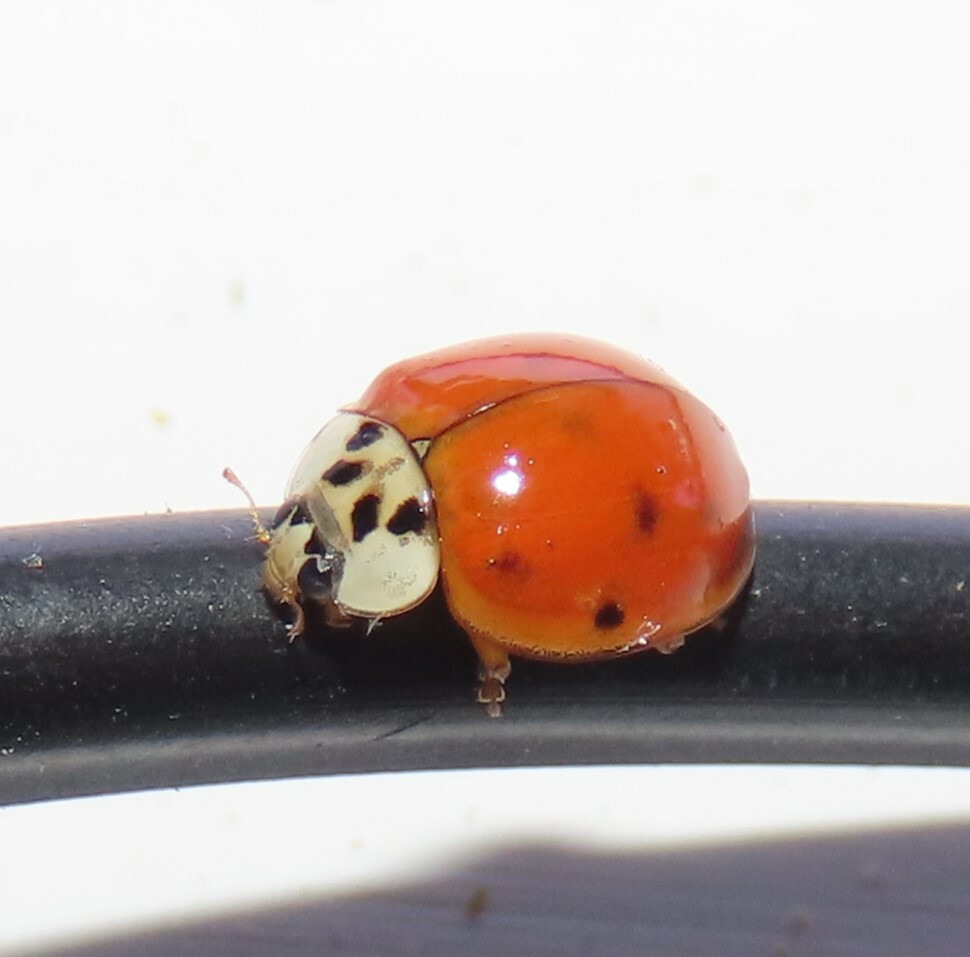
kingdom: Animalia
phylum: Arthropoda
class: Insecta
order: Coleoptera
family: Coccinellidae
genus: Harmonia
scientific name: Harmonia axyridis
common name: Harlequin ladybird
